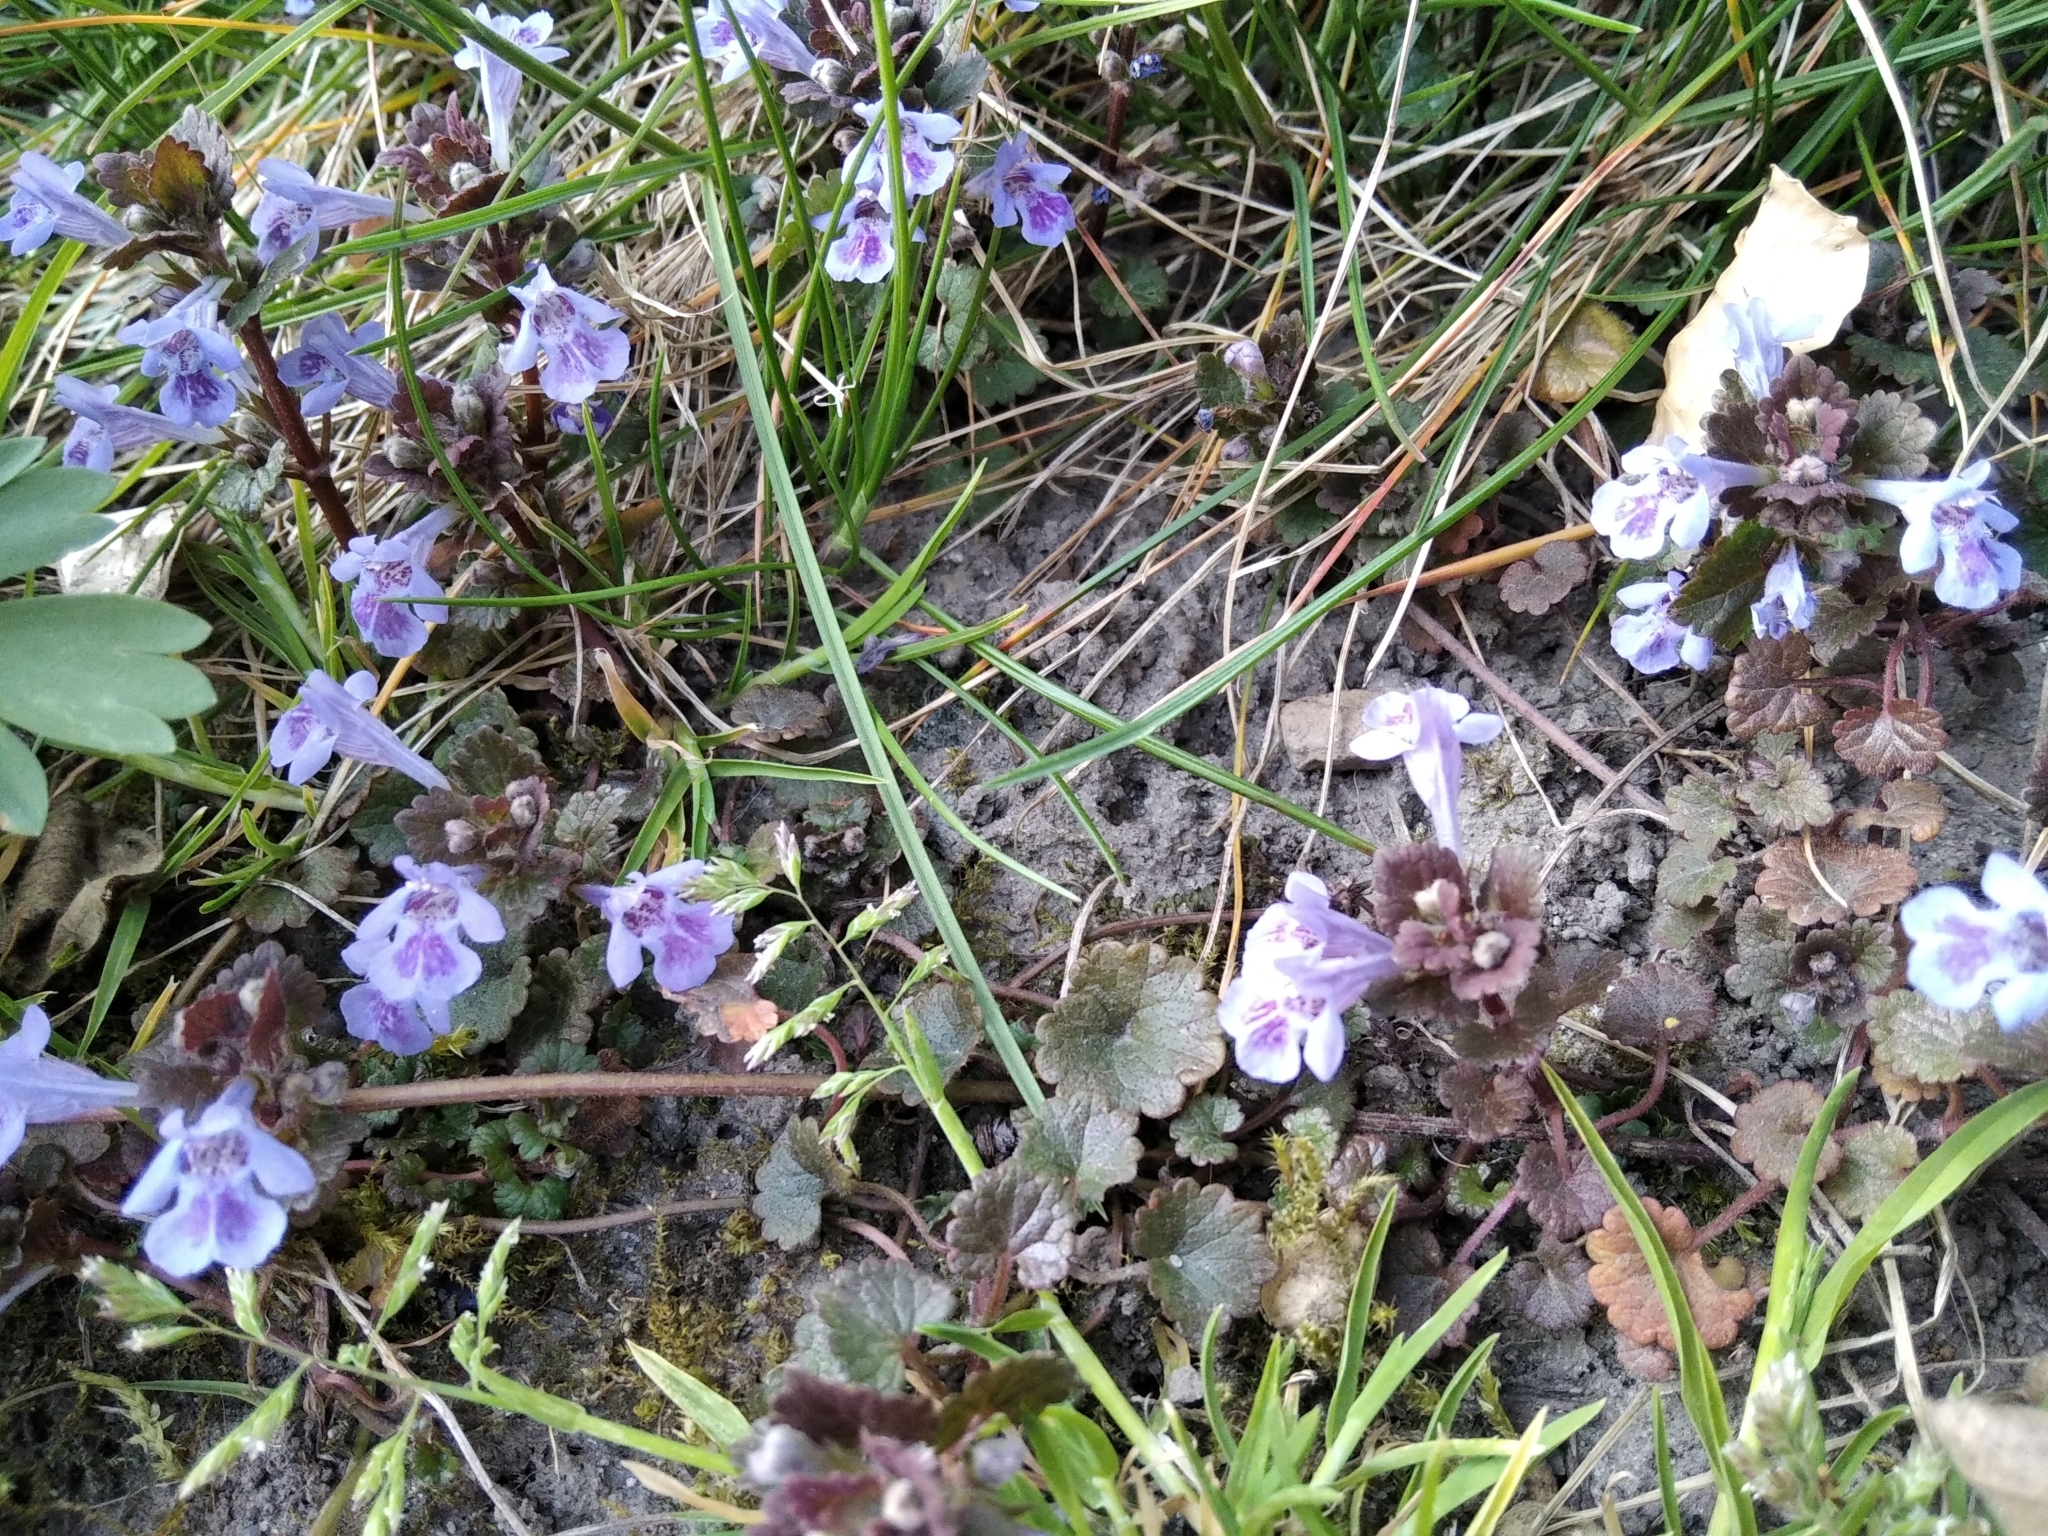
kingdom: Plantae
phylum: Tracheophyta
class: Magnoliopsida
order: Lamiales
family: Lamiaceae
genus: Glechoma
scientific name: Glechoma hederacea
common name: Ground ivy
